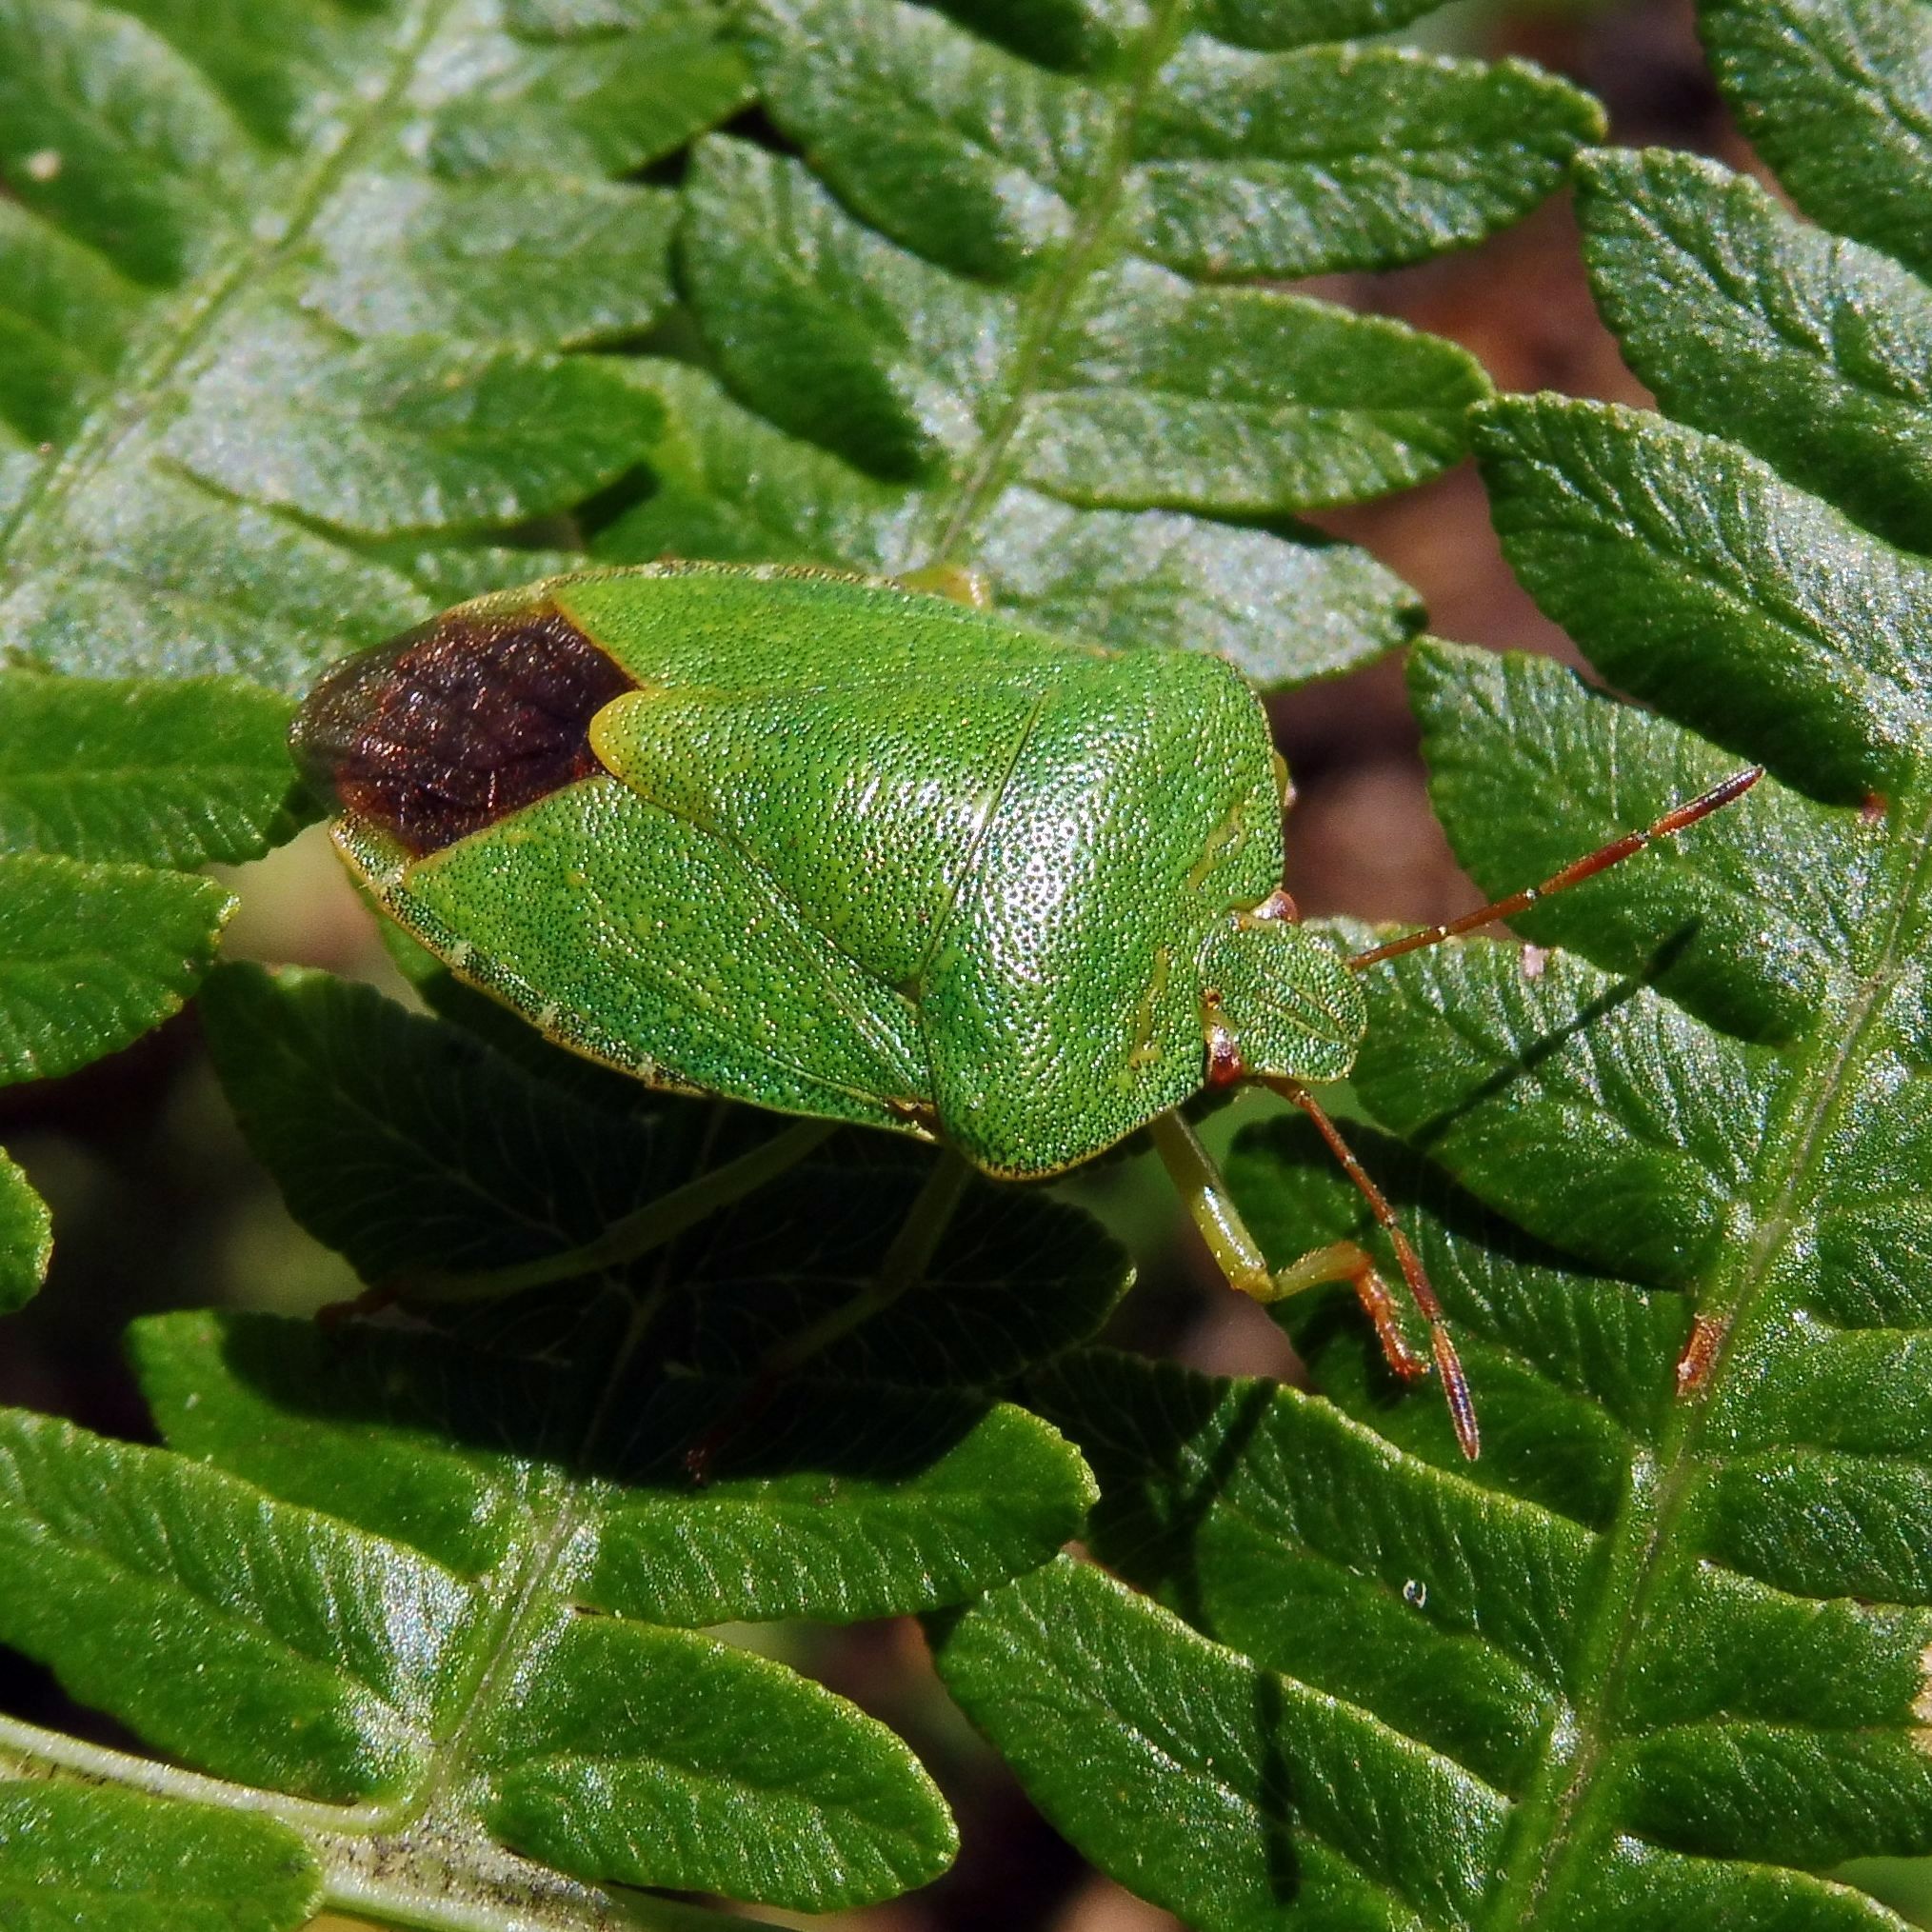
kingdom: Animalia
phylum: Arthropoda
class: Insecta
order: Hemiptera
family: Pentatomidae
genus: Palomena
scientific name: Palomena prasina
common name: Green shieldbug
